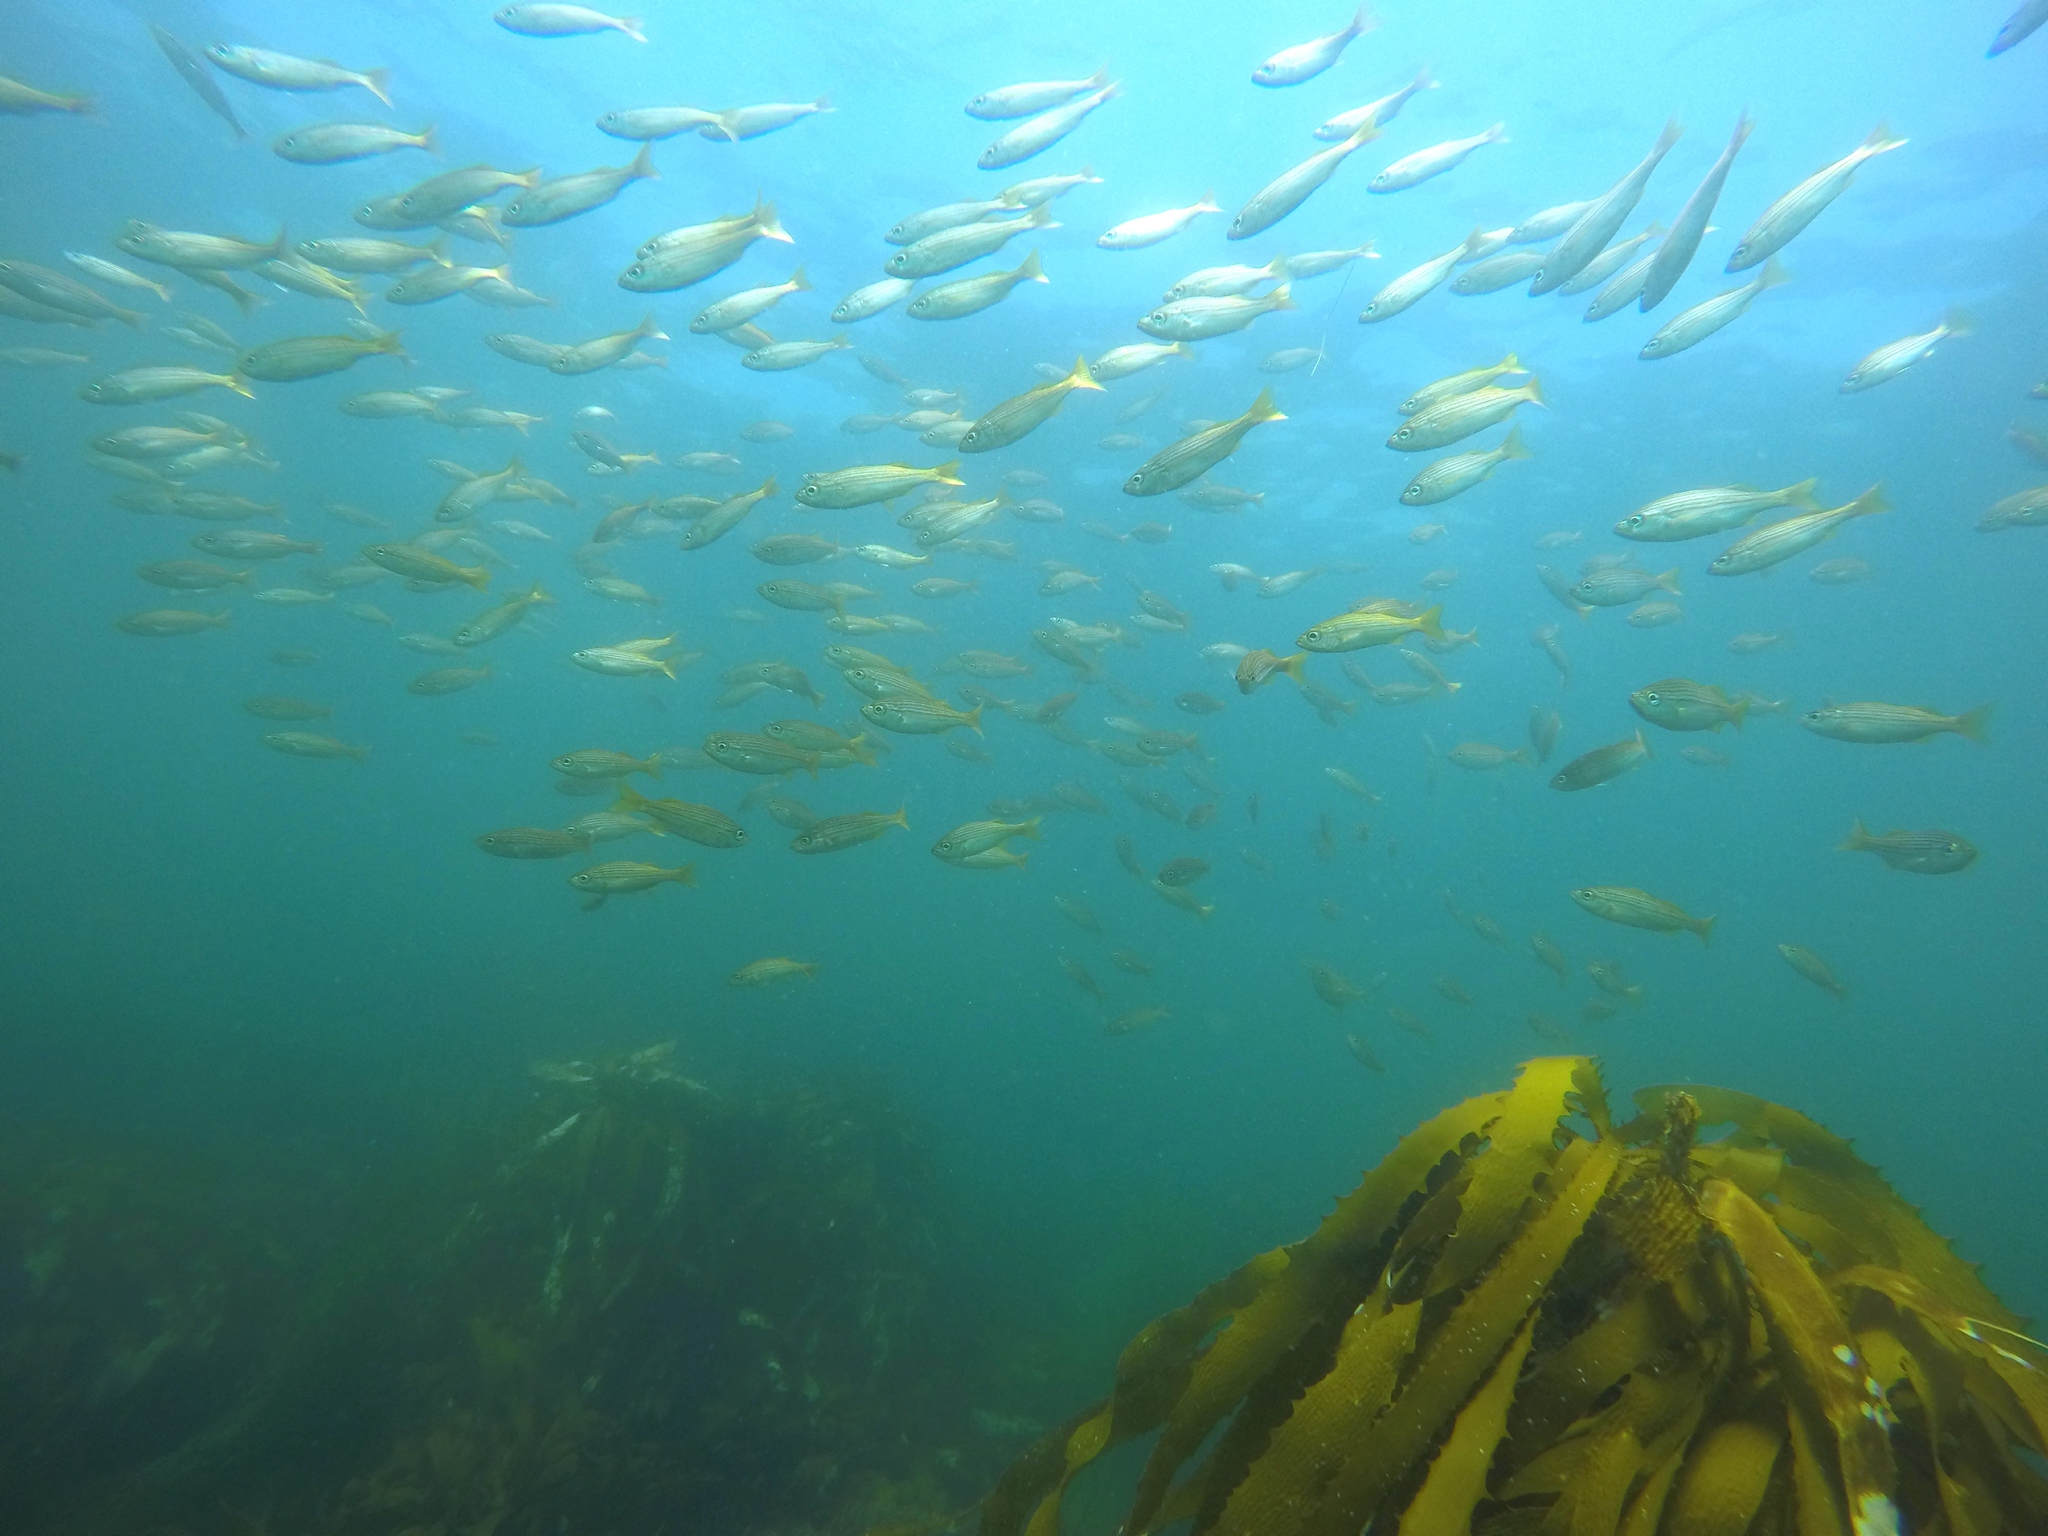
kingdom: Animalia
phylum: Chordata
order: Perciformes
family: Haemulidae
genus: Haemulon
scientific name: Haemulon californiensis
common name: Californian salema
